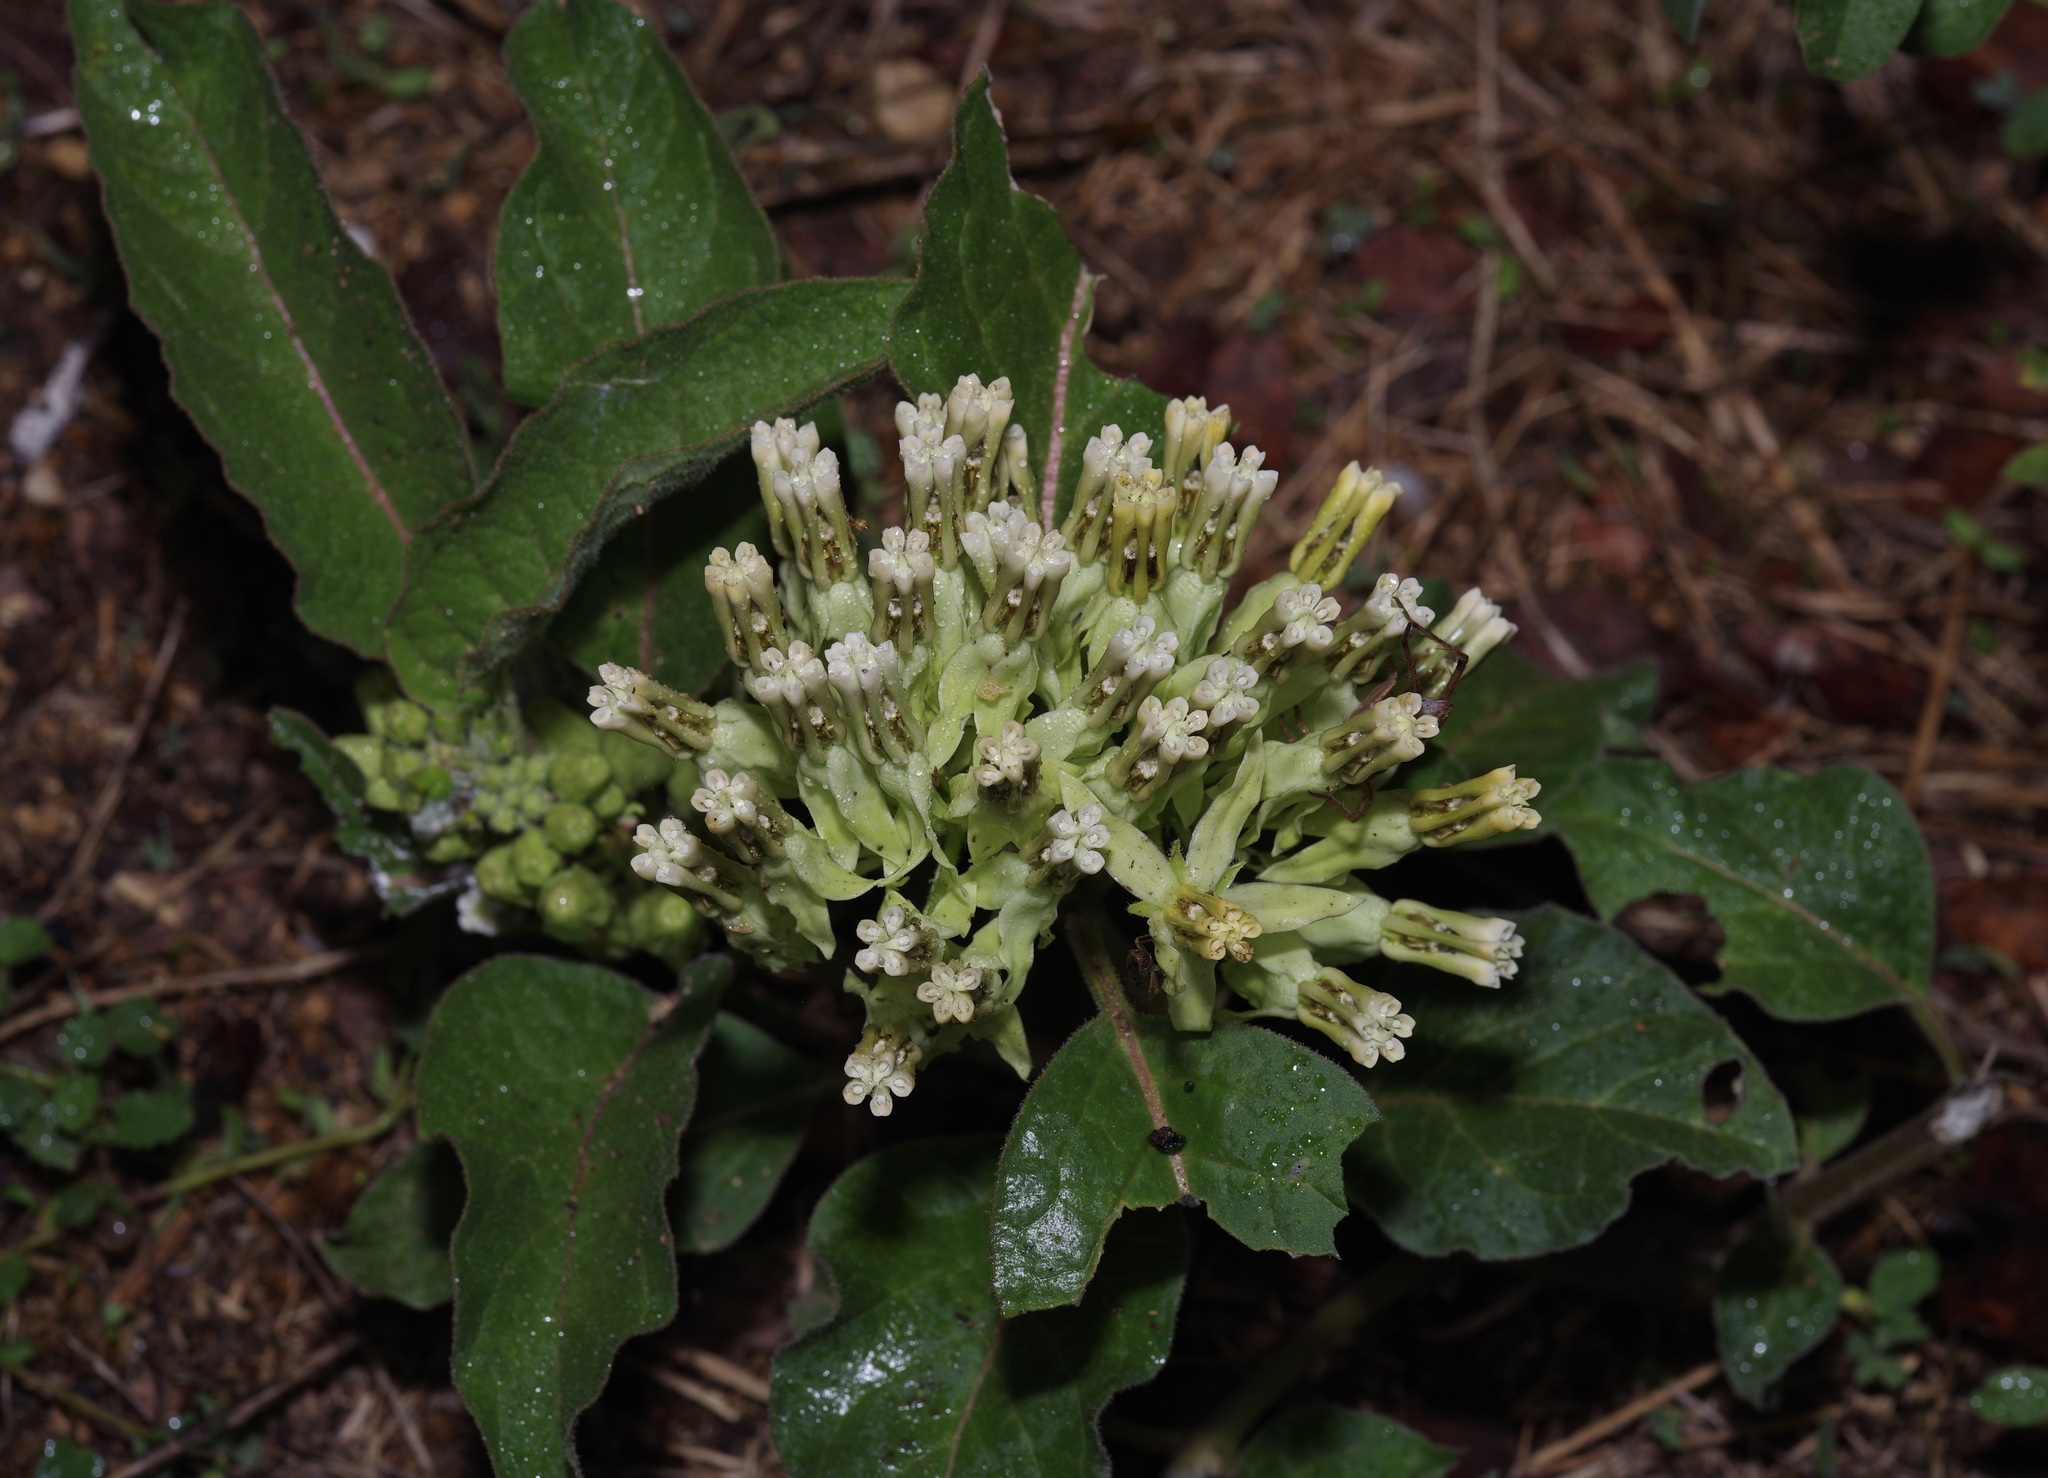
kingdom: Plantae
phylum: Tracheophyta
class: Magnoliopsida
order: Gentianales
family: Apocynaceae
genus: Asclepias
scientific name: Asclepias oenotheroides
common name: Zizotes milkweed
